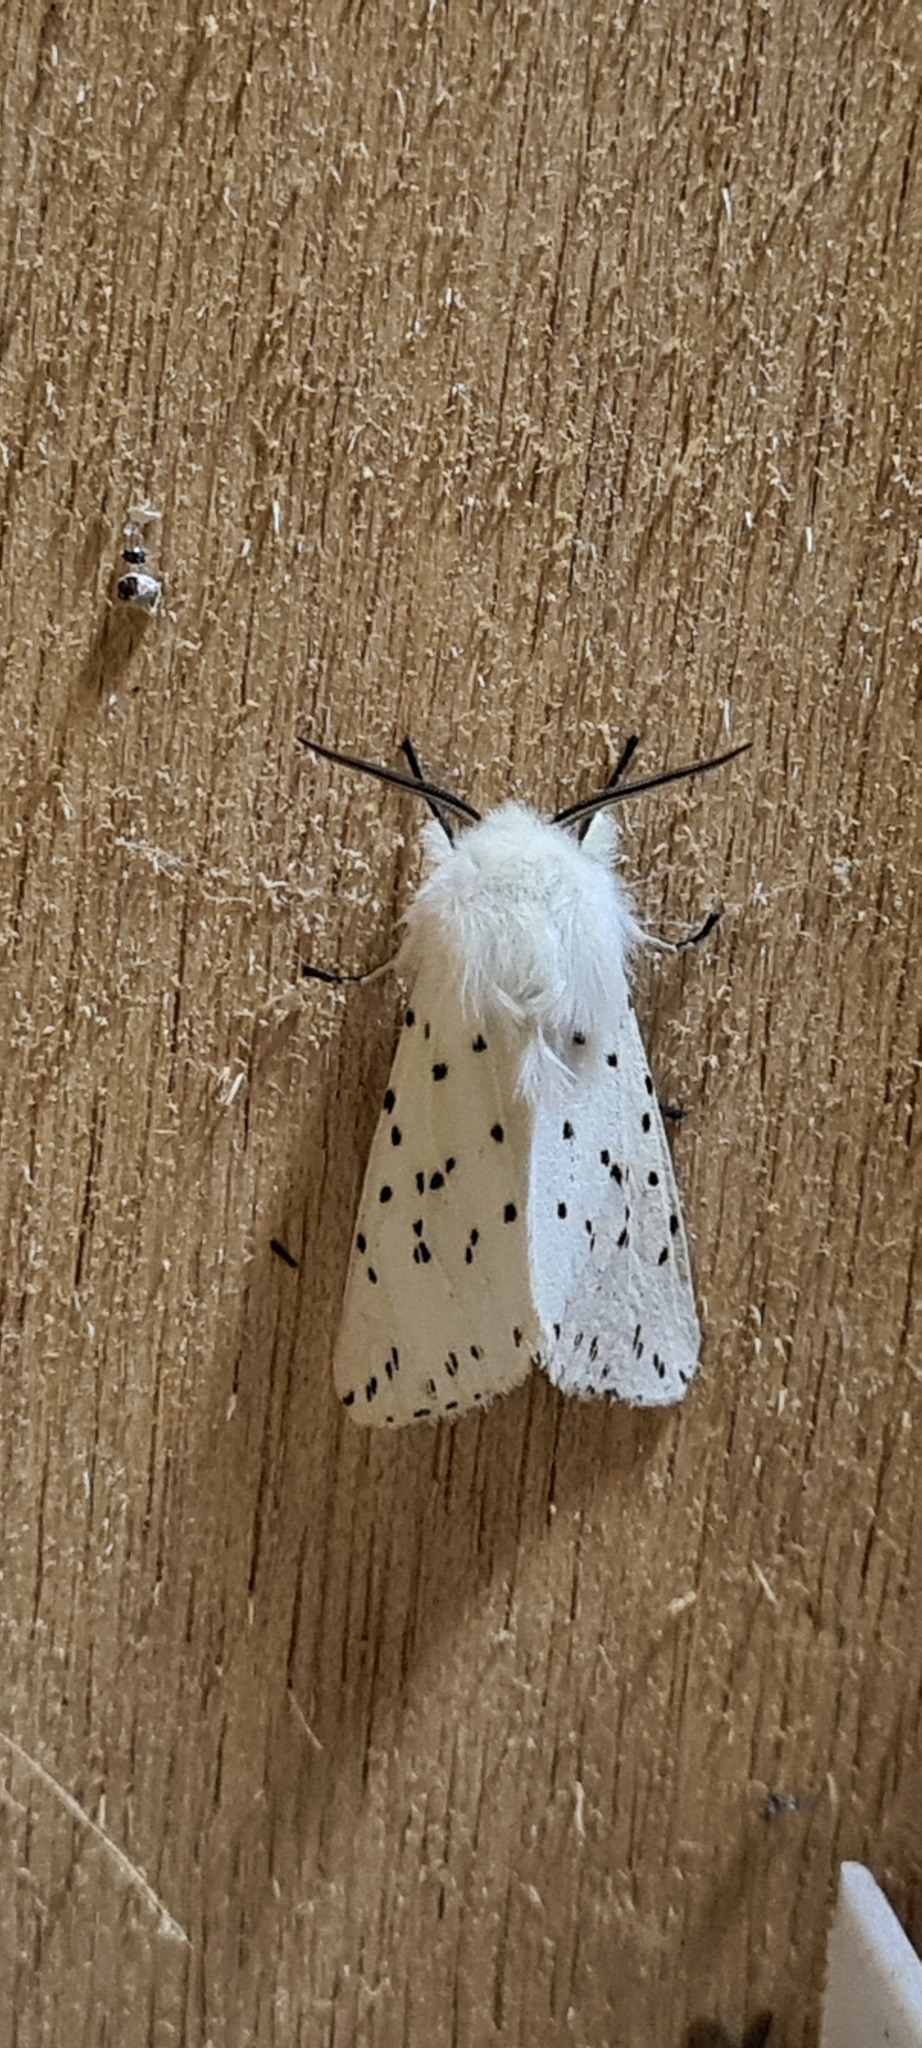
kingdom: Animalia
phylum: Arthropoda
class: Insecta
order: Lepidoptera
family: Erebidae
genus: Spilosoma
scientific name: Spilosoma lubricipeda
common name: White ermine
